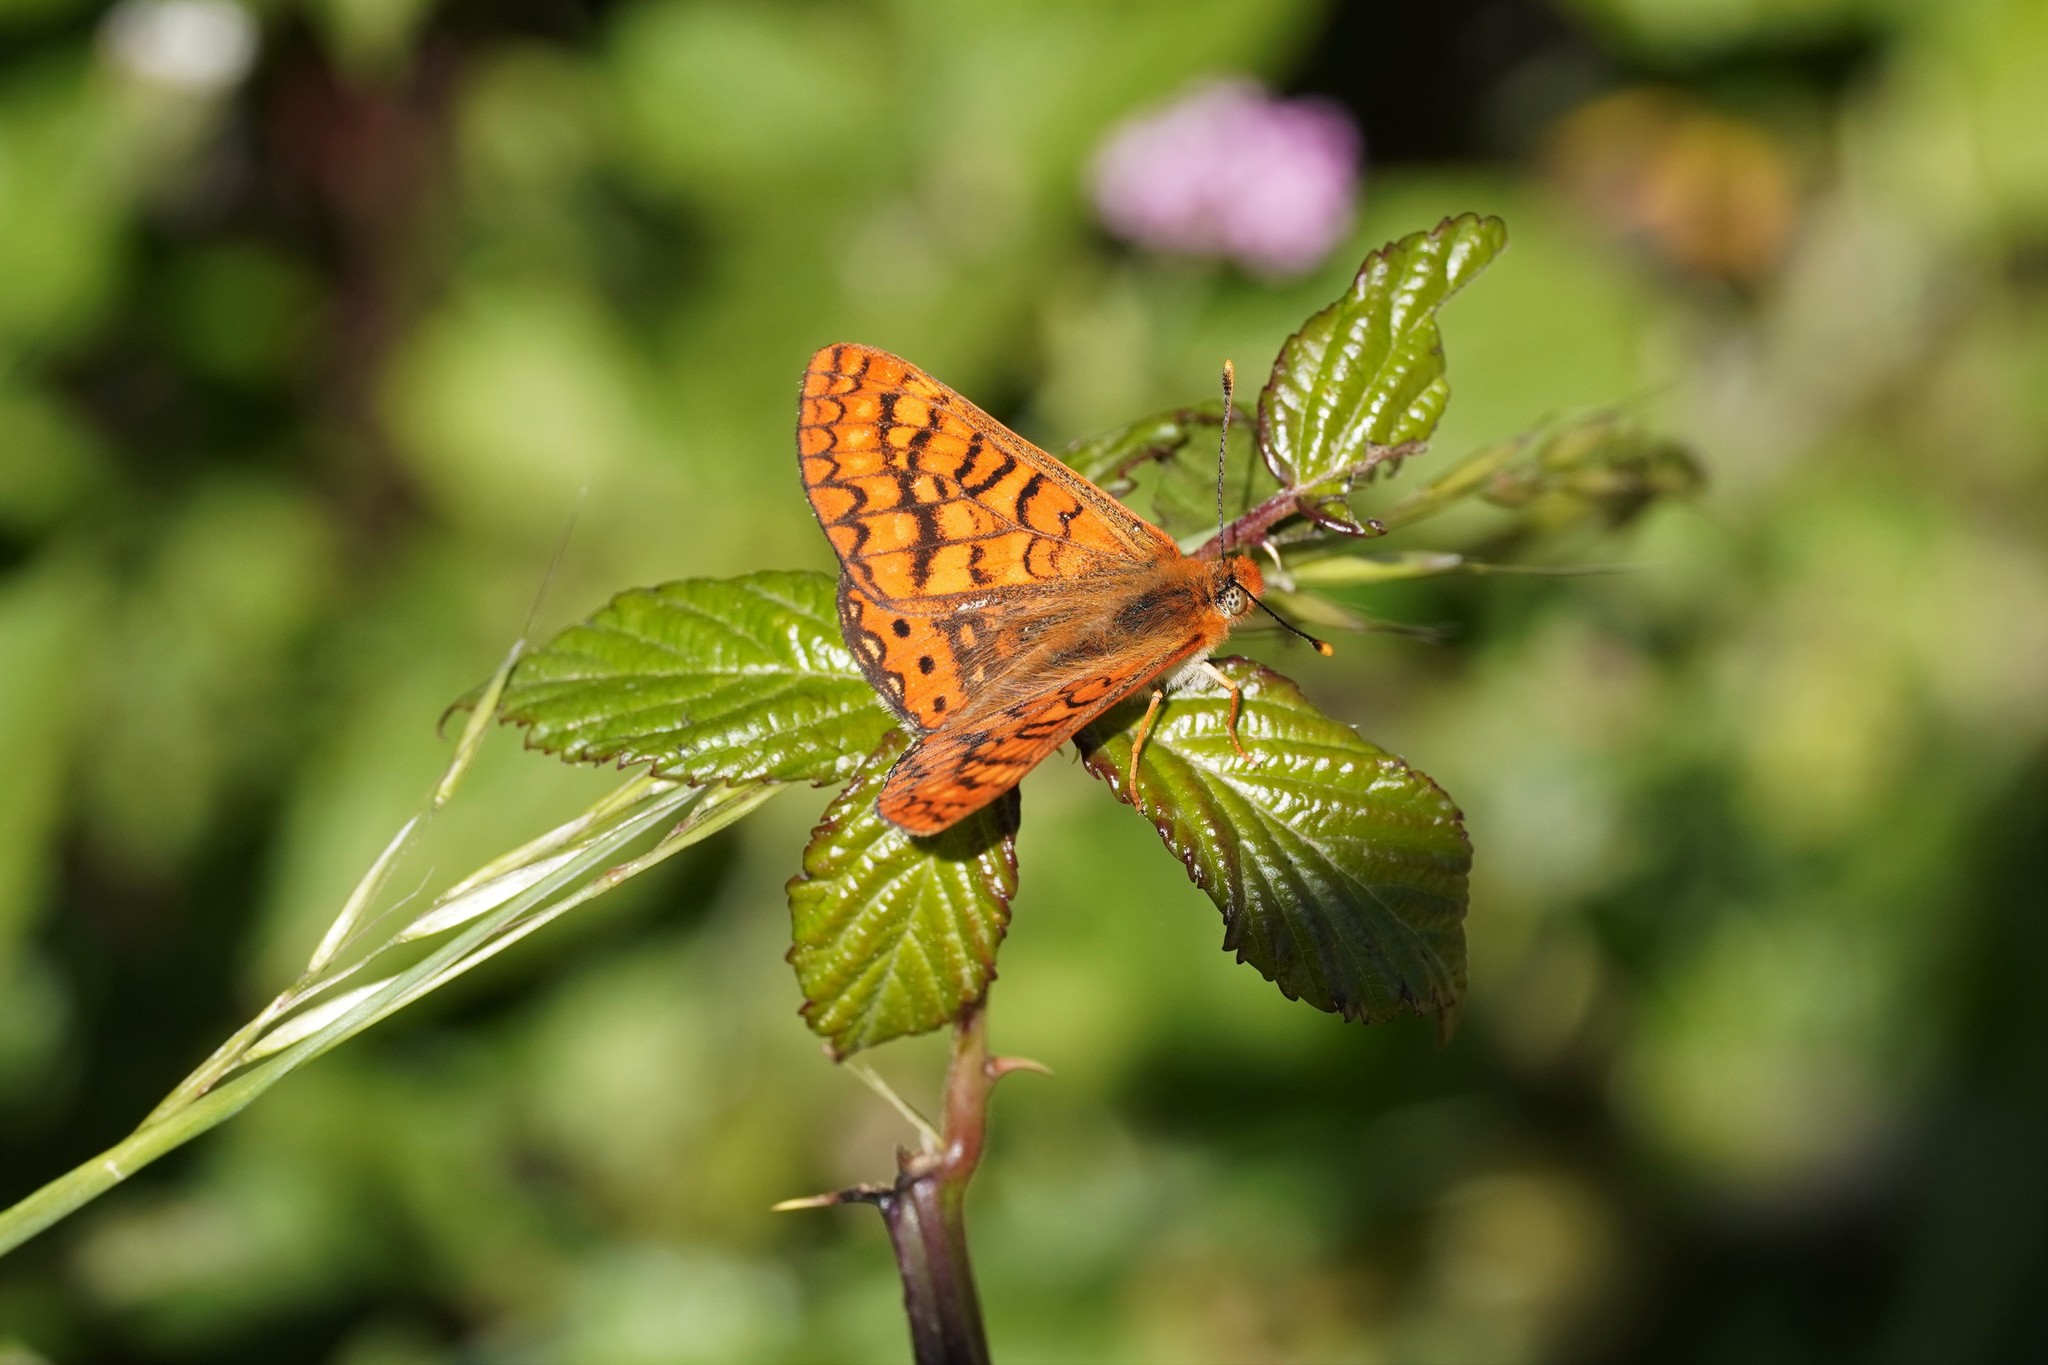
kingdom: Animalia
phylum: Arthropoda
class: Insecta
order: Lepidoptera
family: Nymphalidae
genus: Euphydryas
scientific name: Euphydryas aurinia
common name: Marsh fritillary
